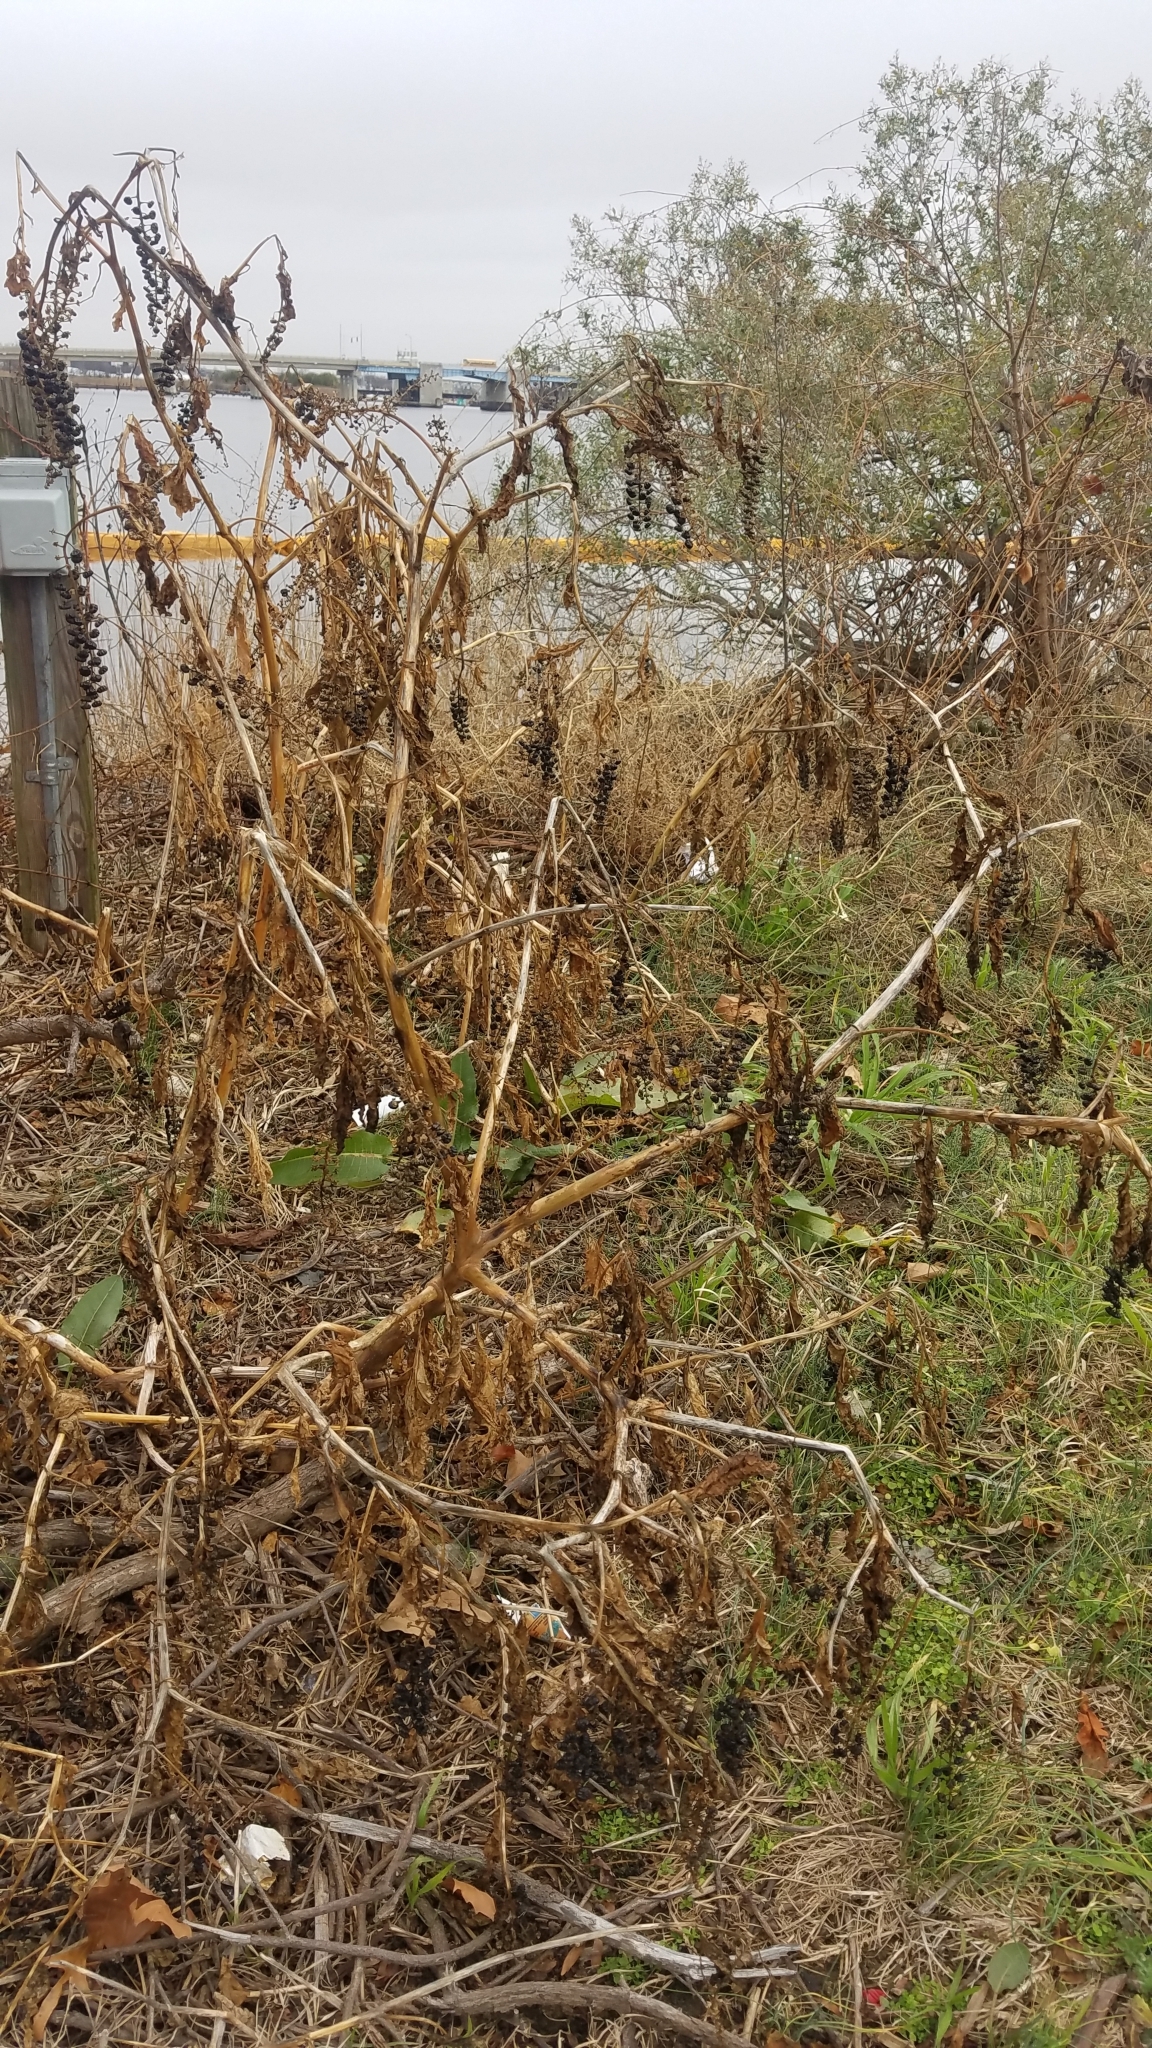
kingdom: Plantae
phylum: Tracheophyta
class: Magnoliopsida
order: Caryophyllales
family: Phytolaccaceae
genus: Phytolacca
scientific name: Phytolacca americana
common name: American pokeweed
